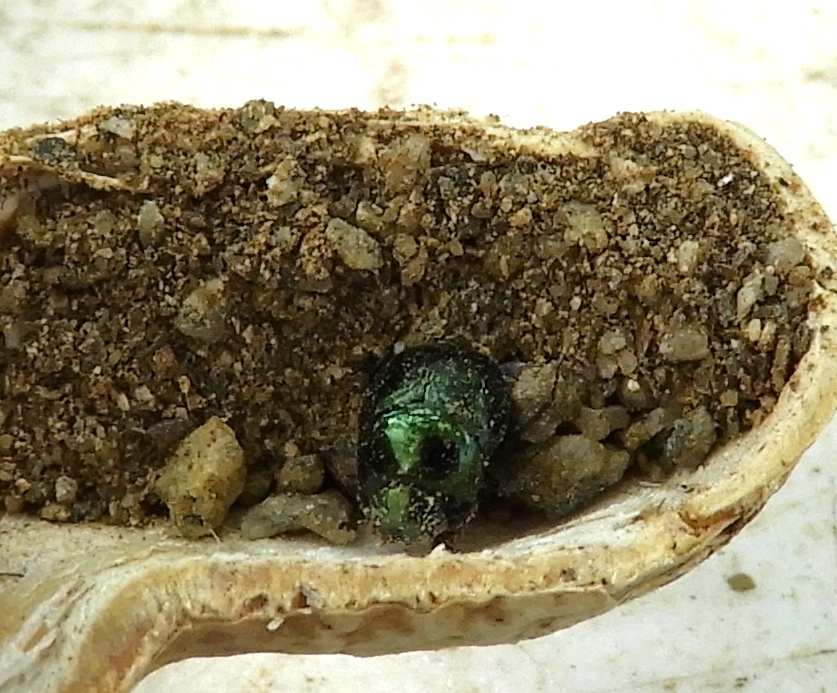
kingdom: Animalia
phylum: Arthropoda
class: Insecta
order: Coleoptera
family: Scarabaeidae
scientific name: Scarabaeidae
